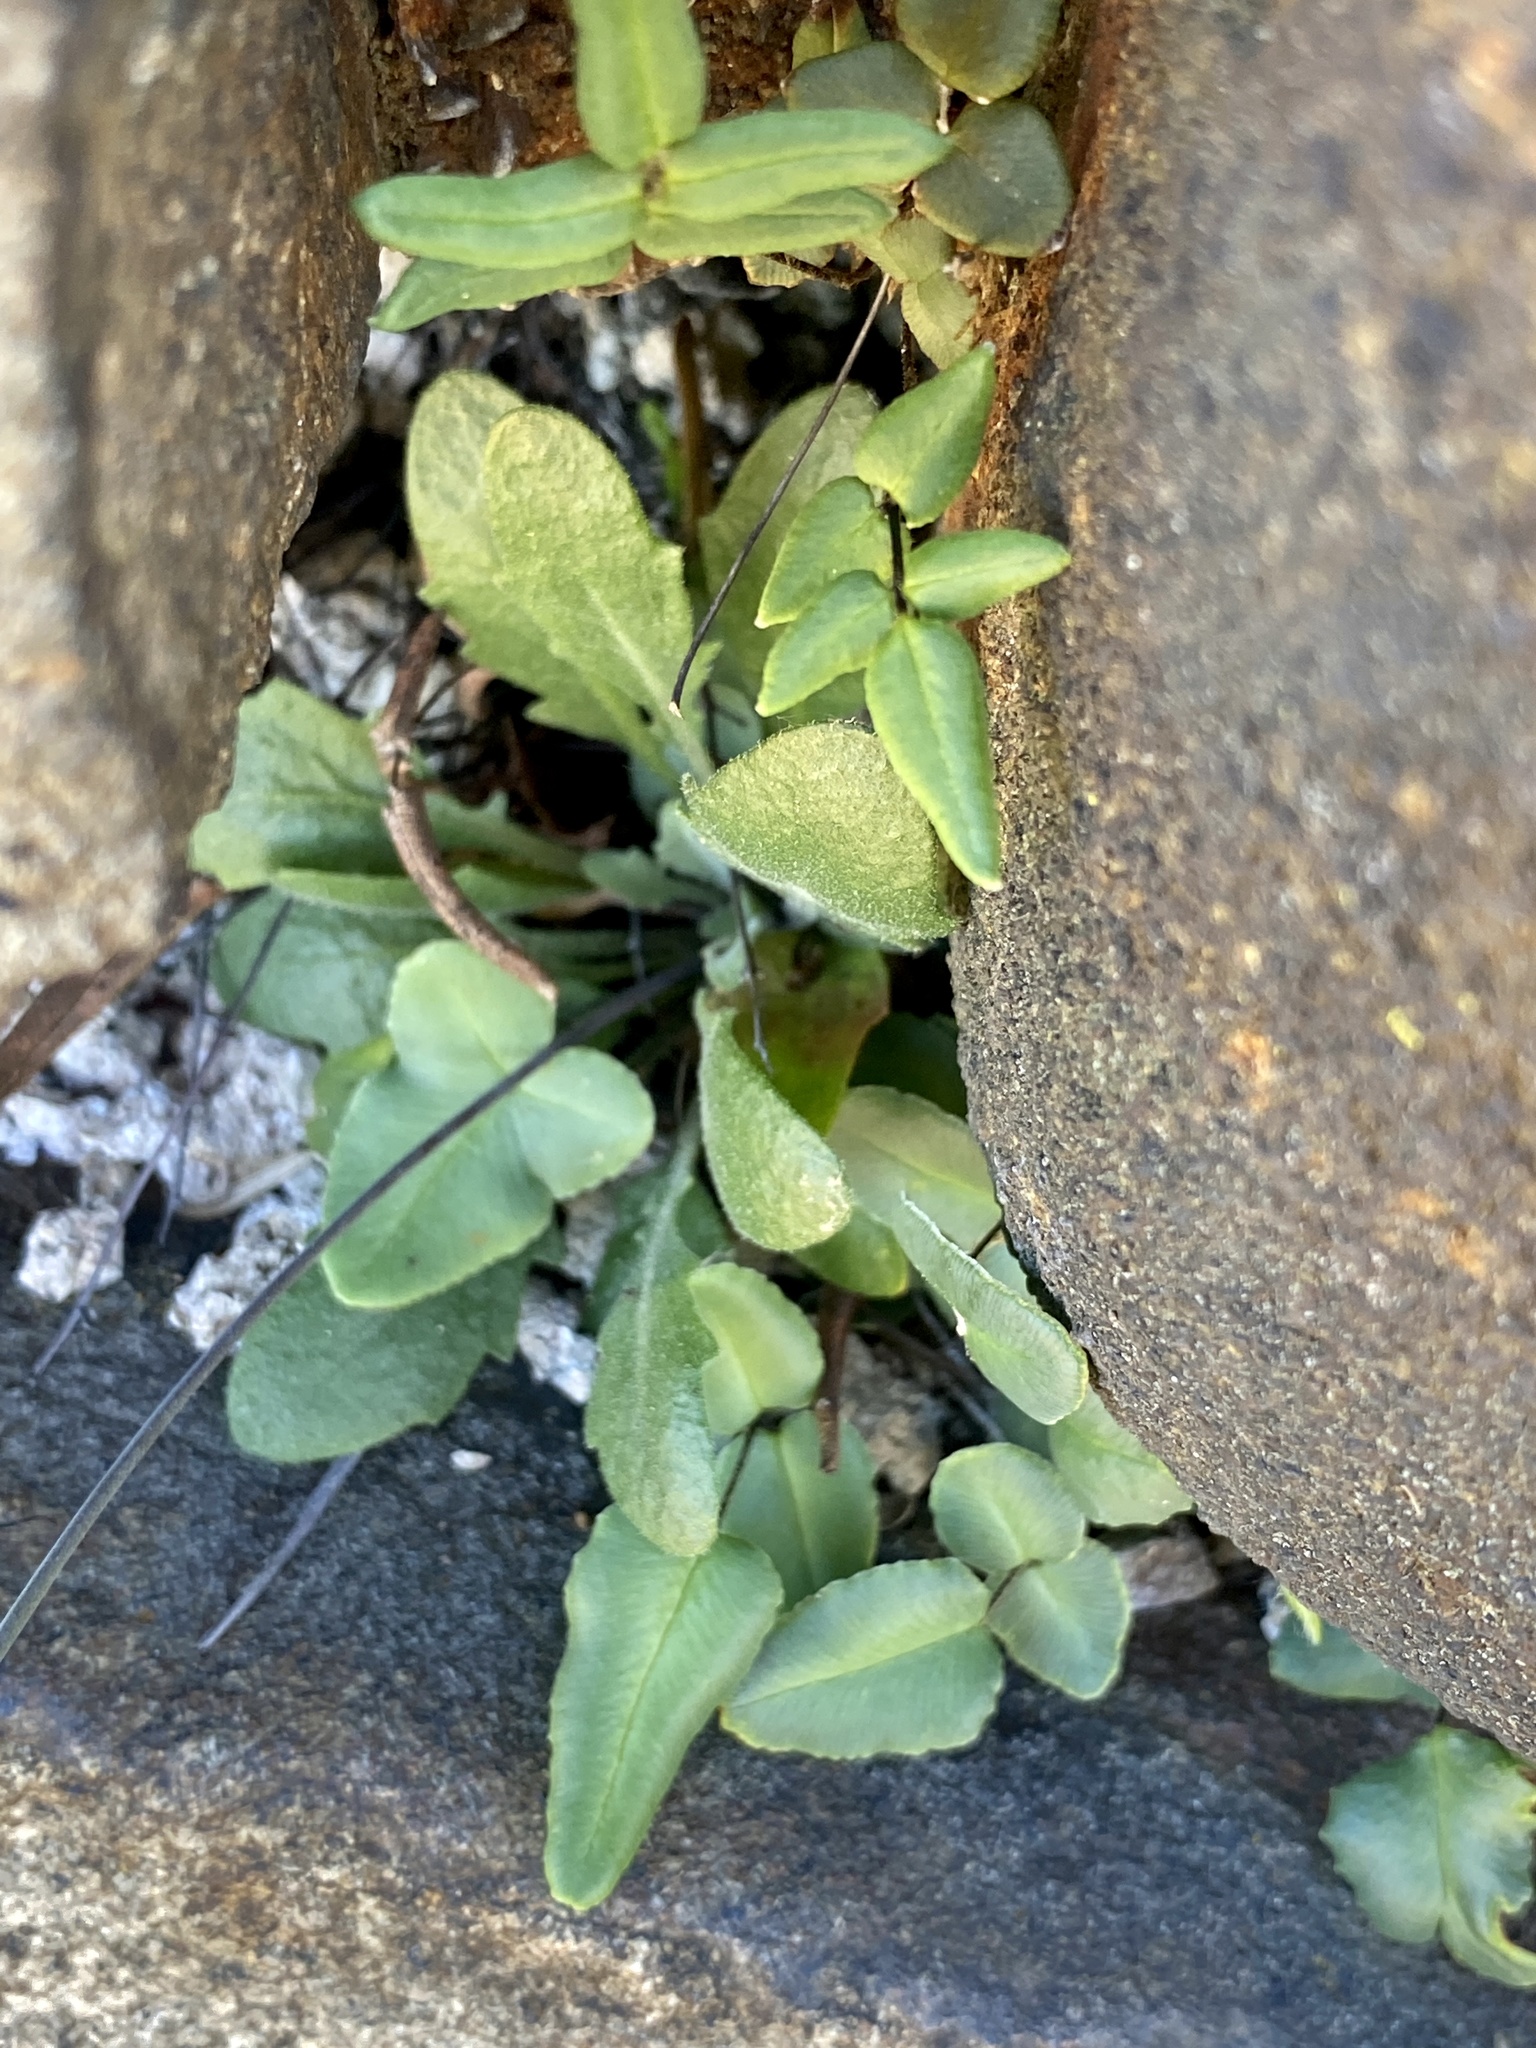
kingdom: Plantae
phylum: Tracheophyta
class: Polypodiopsida
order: Polypodiales
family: Pteridaceae
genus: Pellaea
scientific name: Pellaea atropurpurea
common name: Hairy cliffbrake
